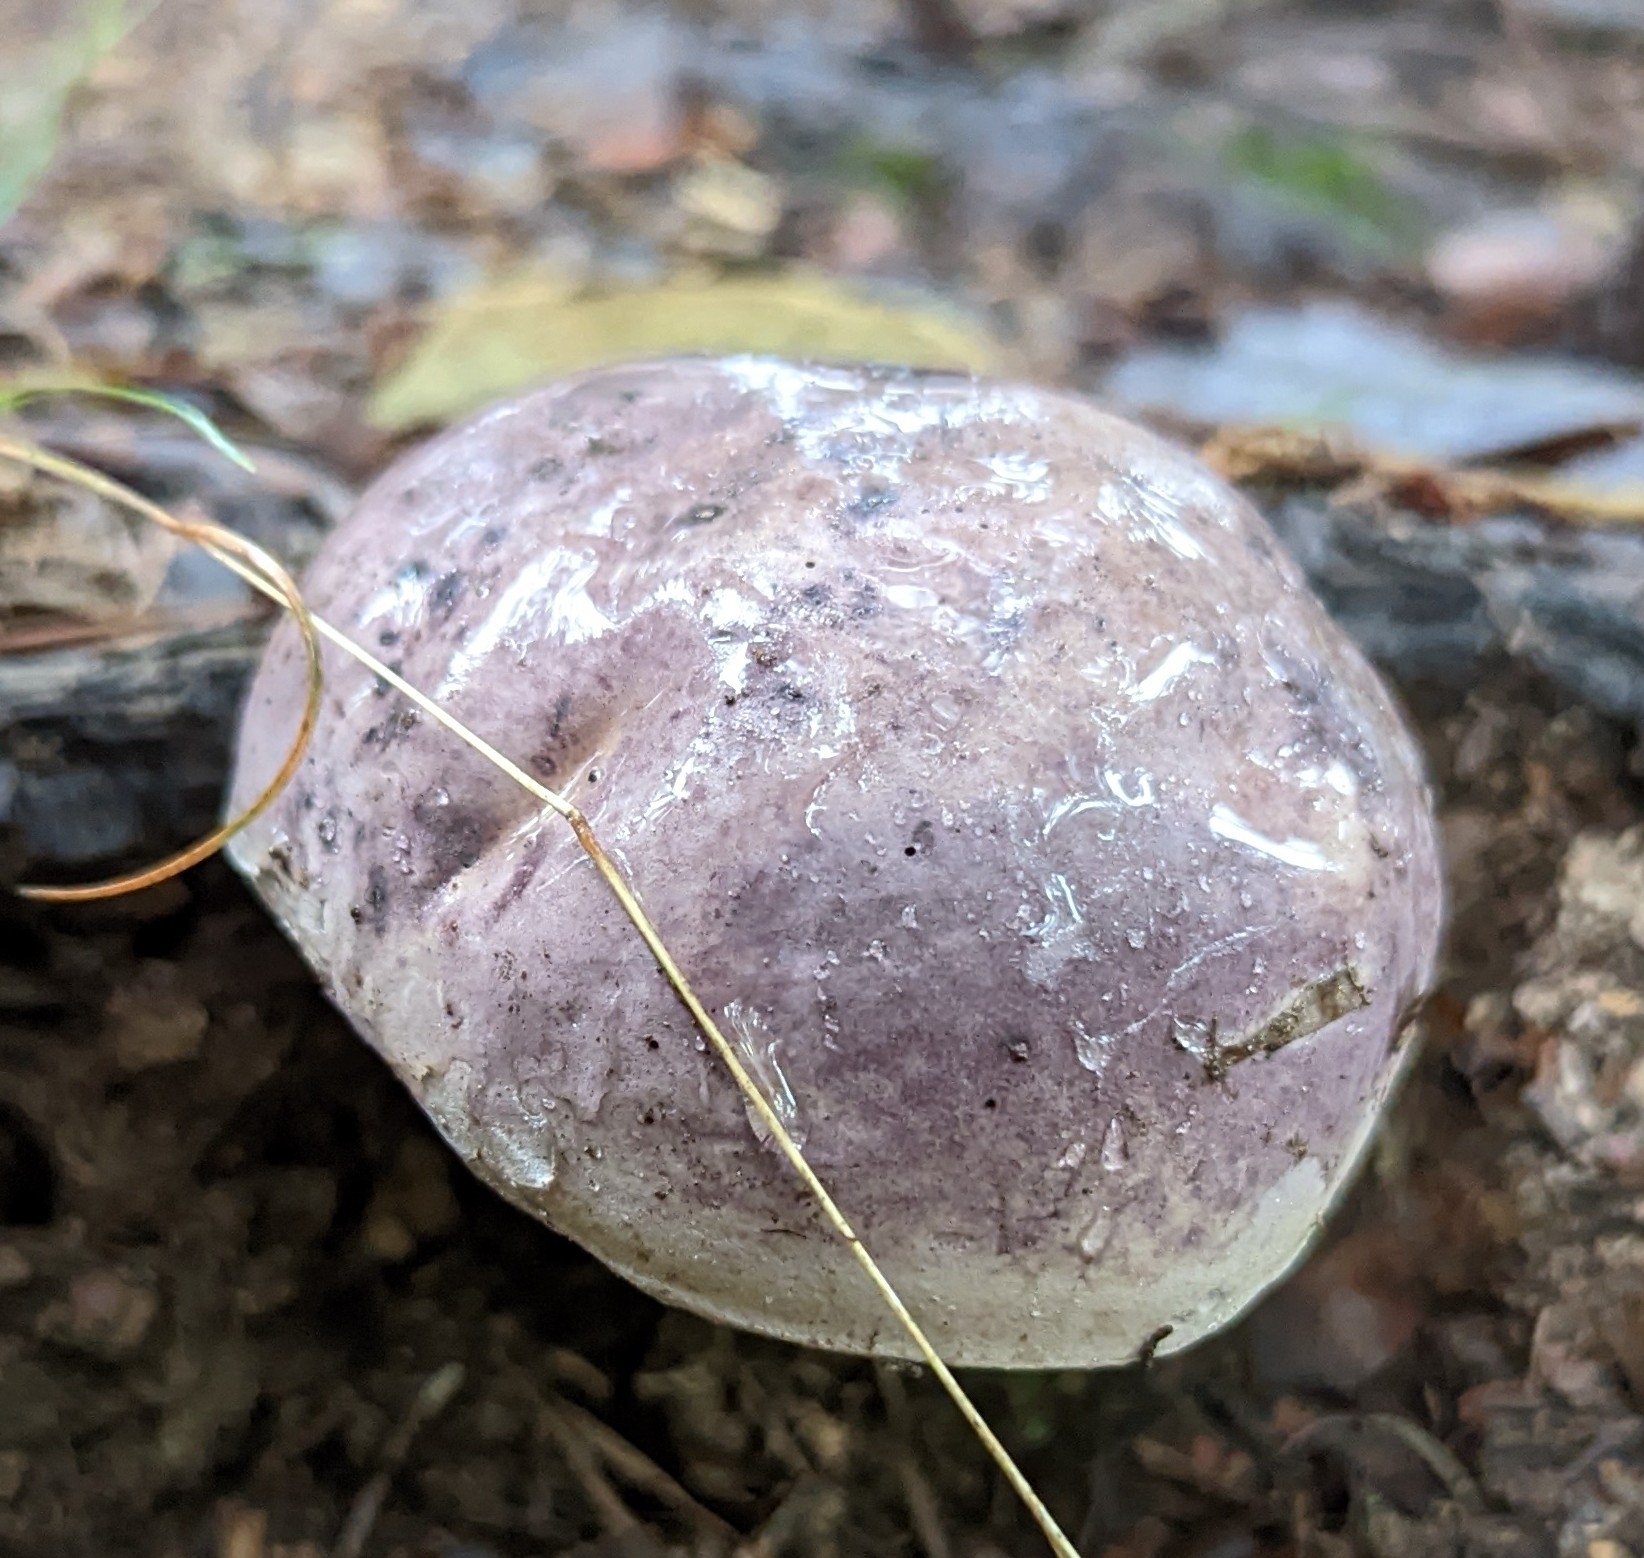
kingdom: Fungi
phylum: Basidiomycota
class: Agaricomycetes
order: Boletales
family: Boletaceae
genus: Tylopilus
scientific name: Tylopilus plumbeoviolaceus
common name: Violet gray bolete
